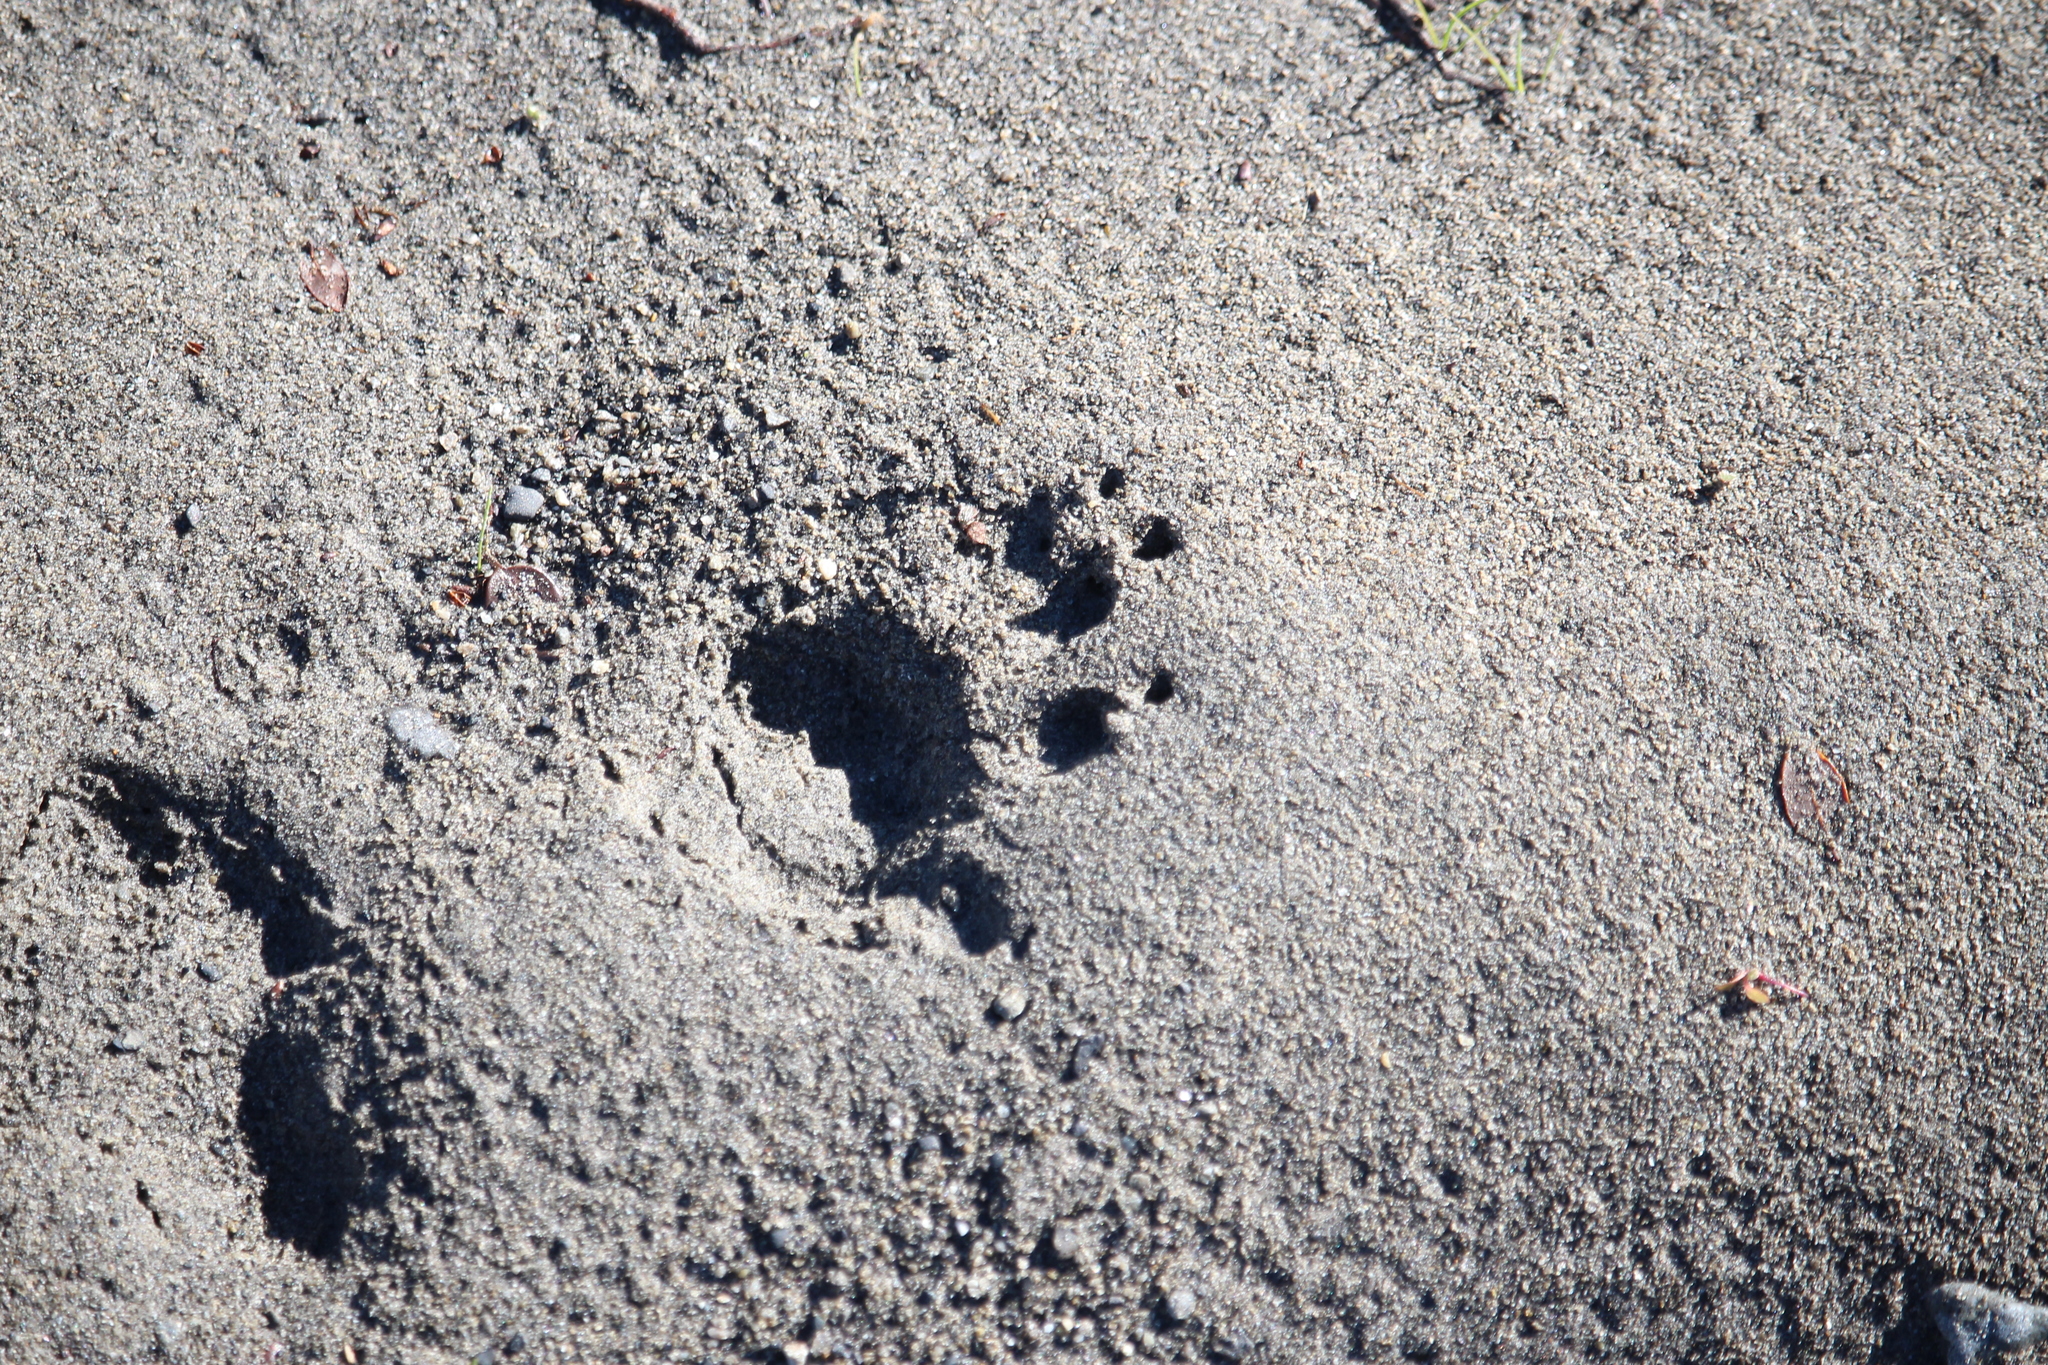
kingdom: Animalia
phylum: Chordata
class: Mammalia
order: Diprotodontia
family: Phalangeridae
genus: Trichosurus
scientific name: Trichosurus vulpecula
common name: Common brushtail
